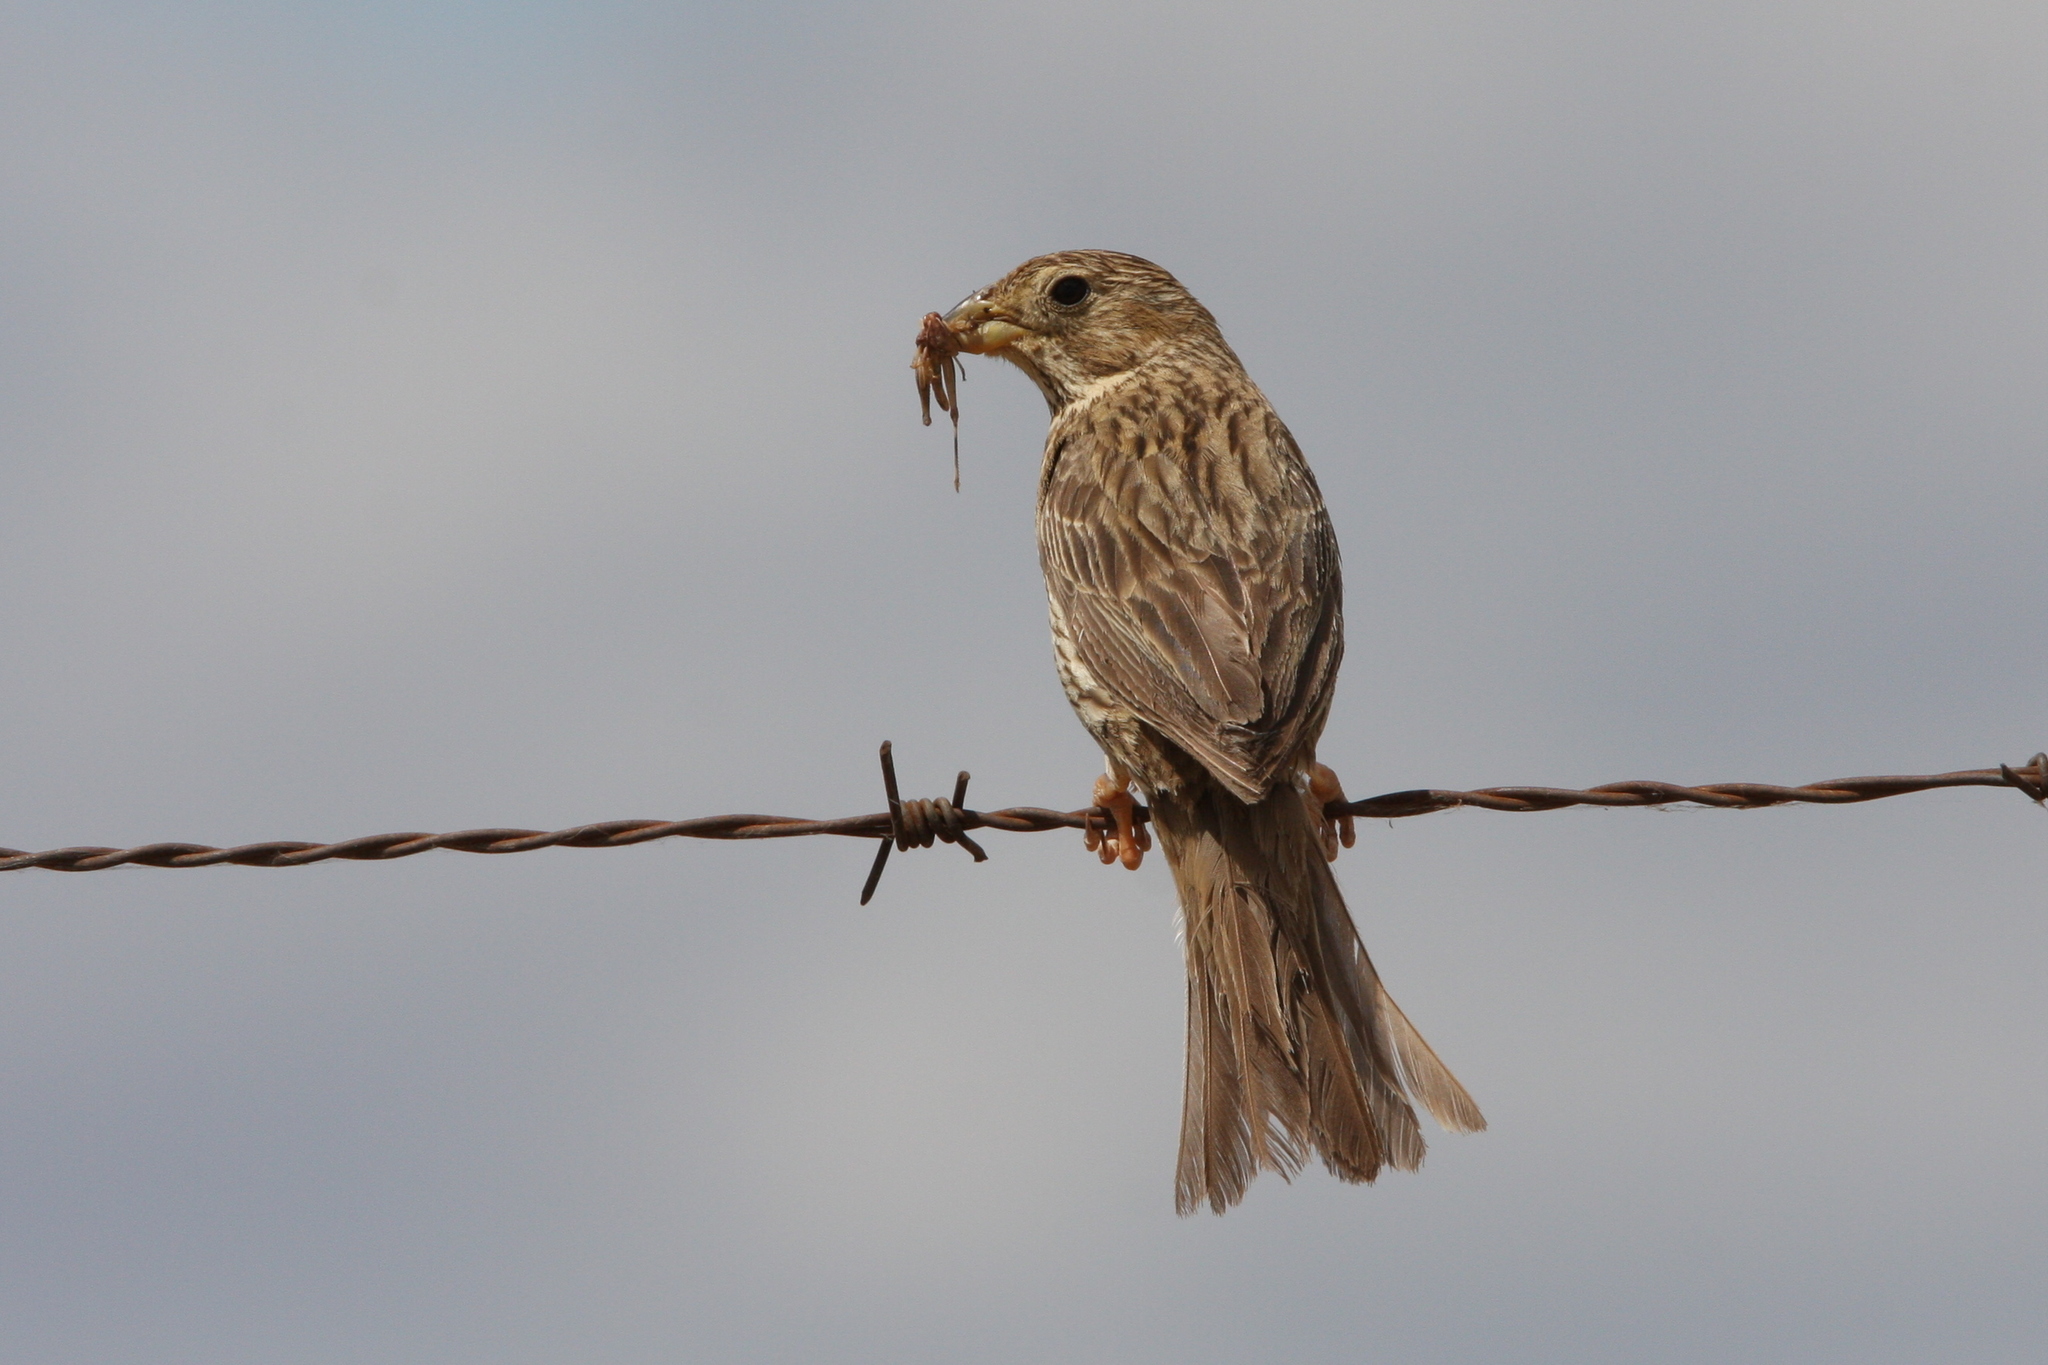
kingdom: Animalia
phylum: Chordata
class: Aves
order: Passeriformes
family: Emberizidae
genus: Emberiza
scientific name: Emberiza calandra
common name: Corn bunting
